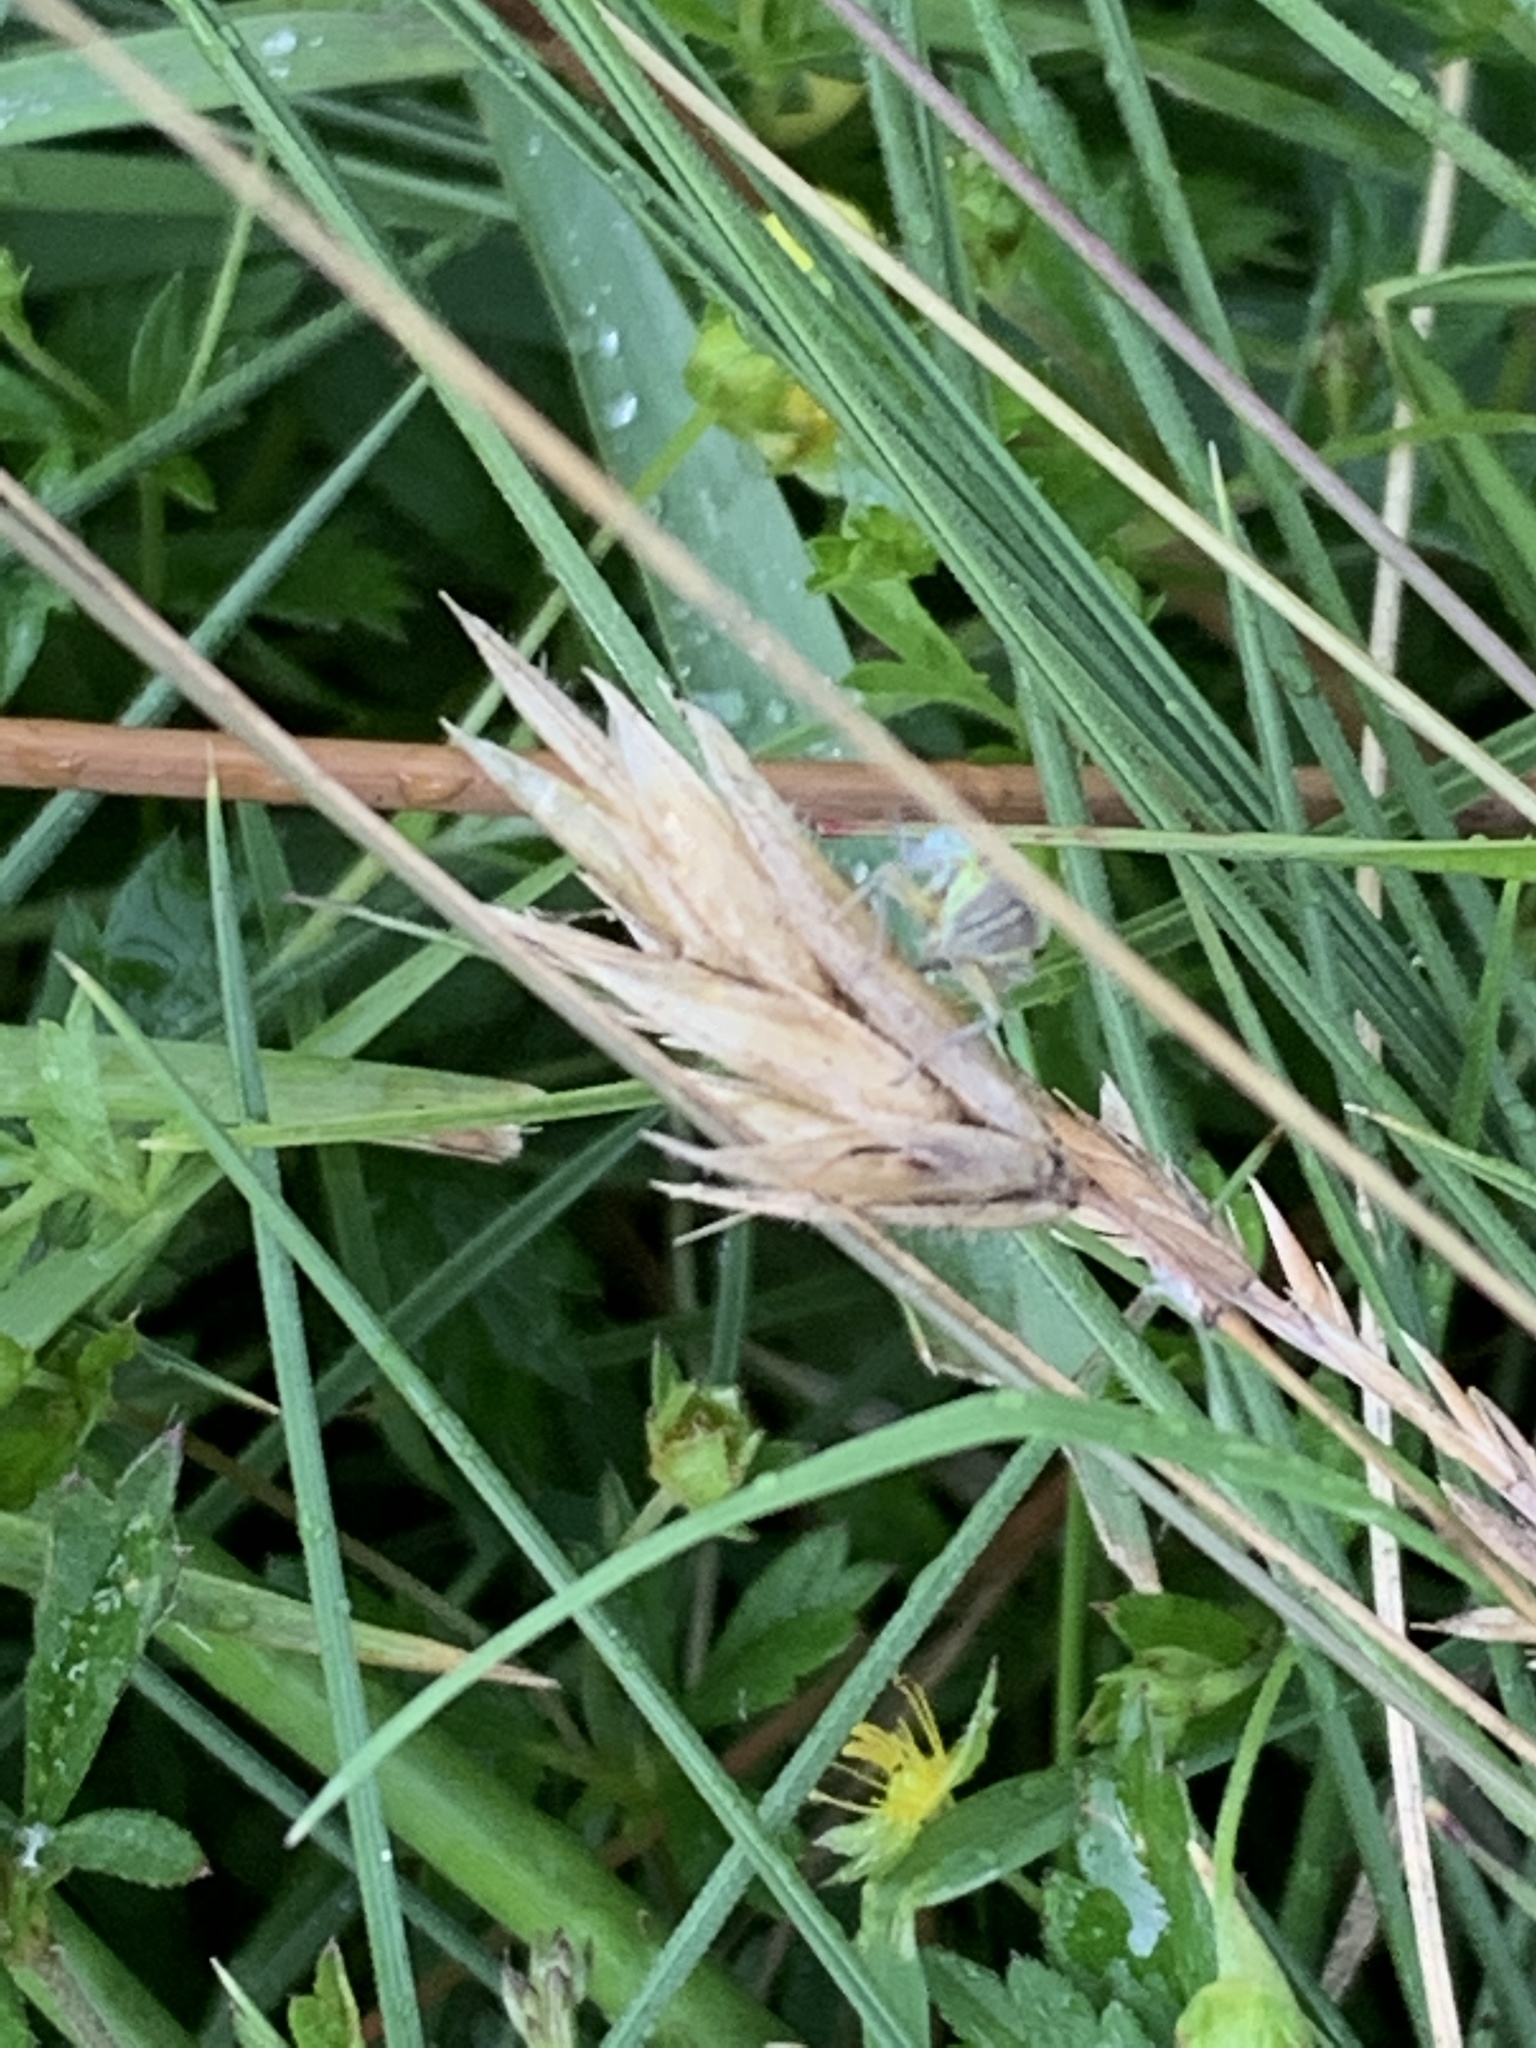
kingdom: Animalia
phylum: Arthropoda
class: Insecta
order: Hemiptera
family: Cicadellidae
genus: Cicadella
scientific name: Cicadella viridis
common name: Leafhopper
